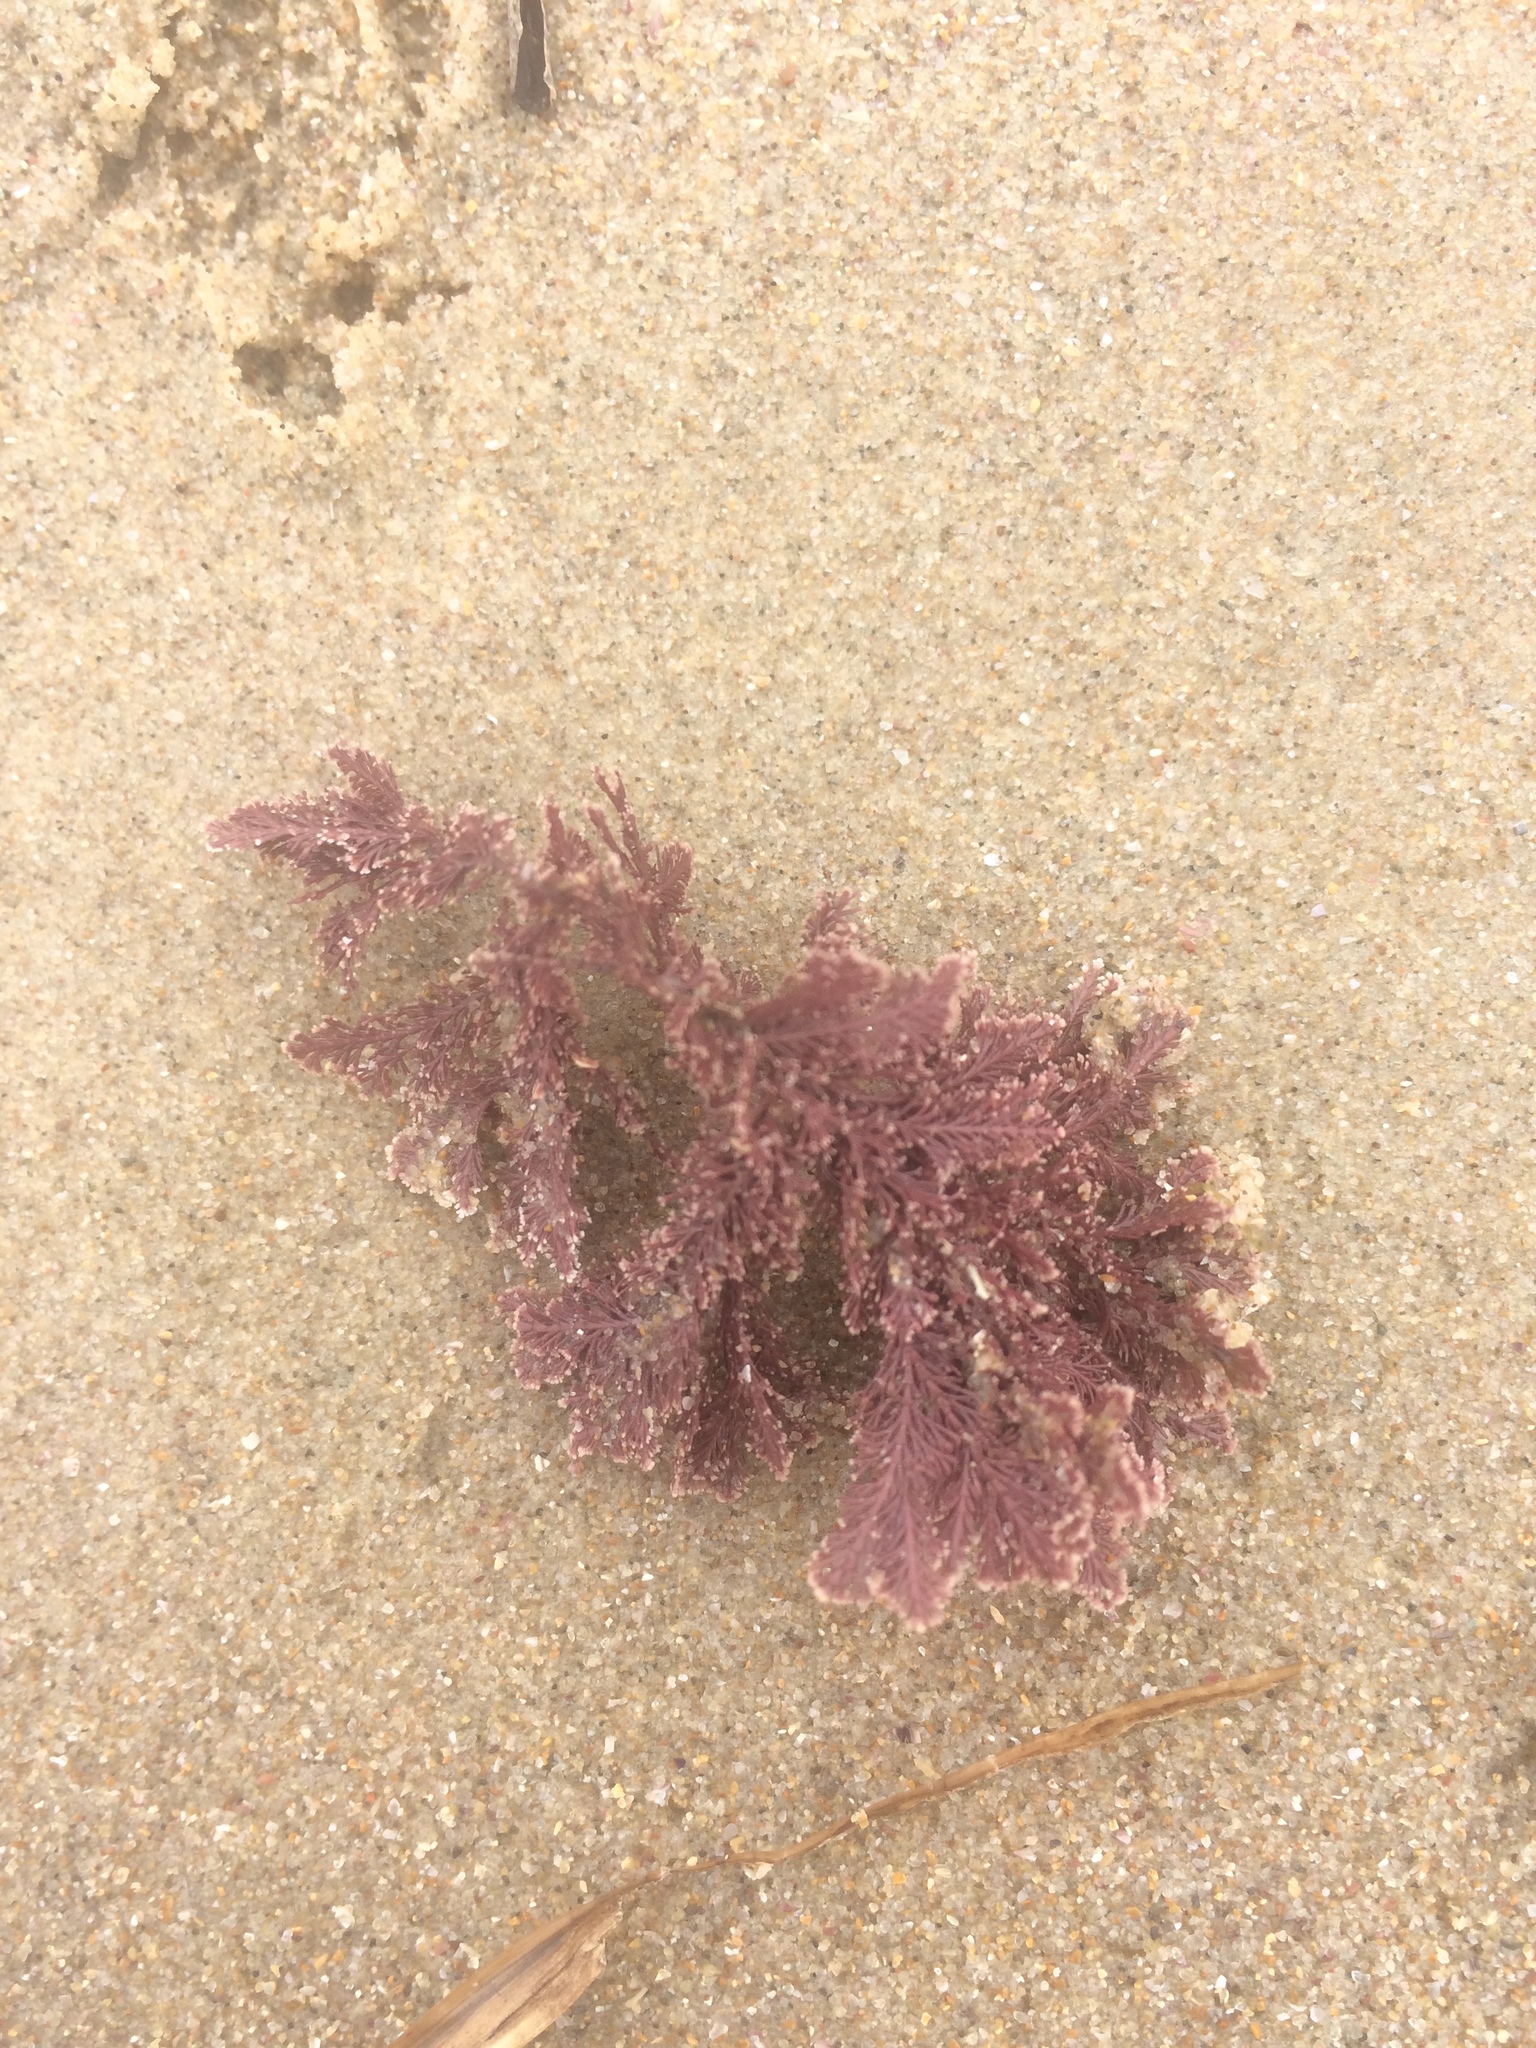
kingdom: Plantae
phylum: Rhodophyta
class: Florideophyceae
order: Corallinales
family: Corallinaceae
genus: Corallina
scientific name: Corallina officinalis
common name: Coral weed
